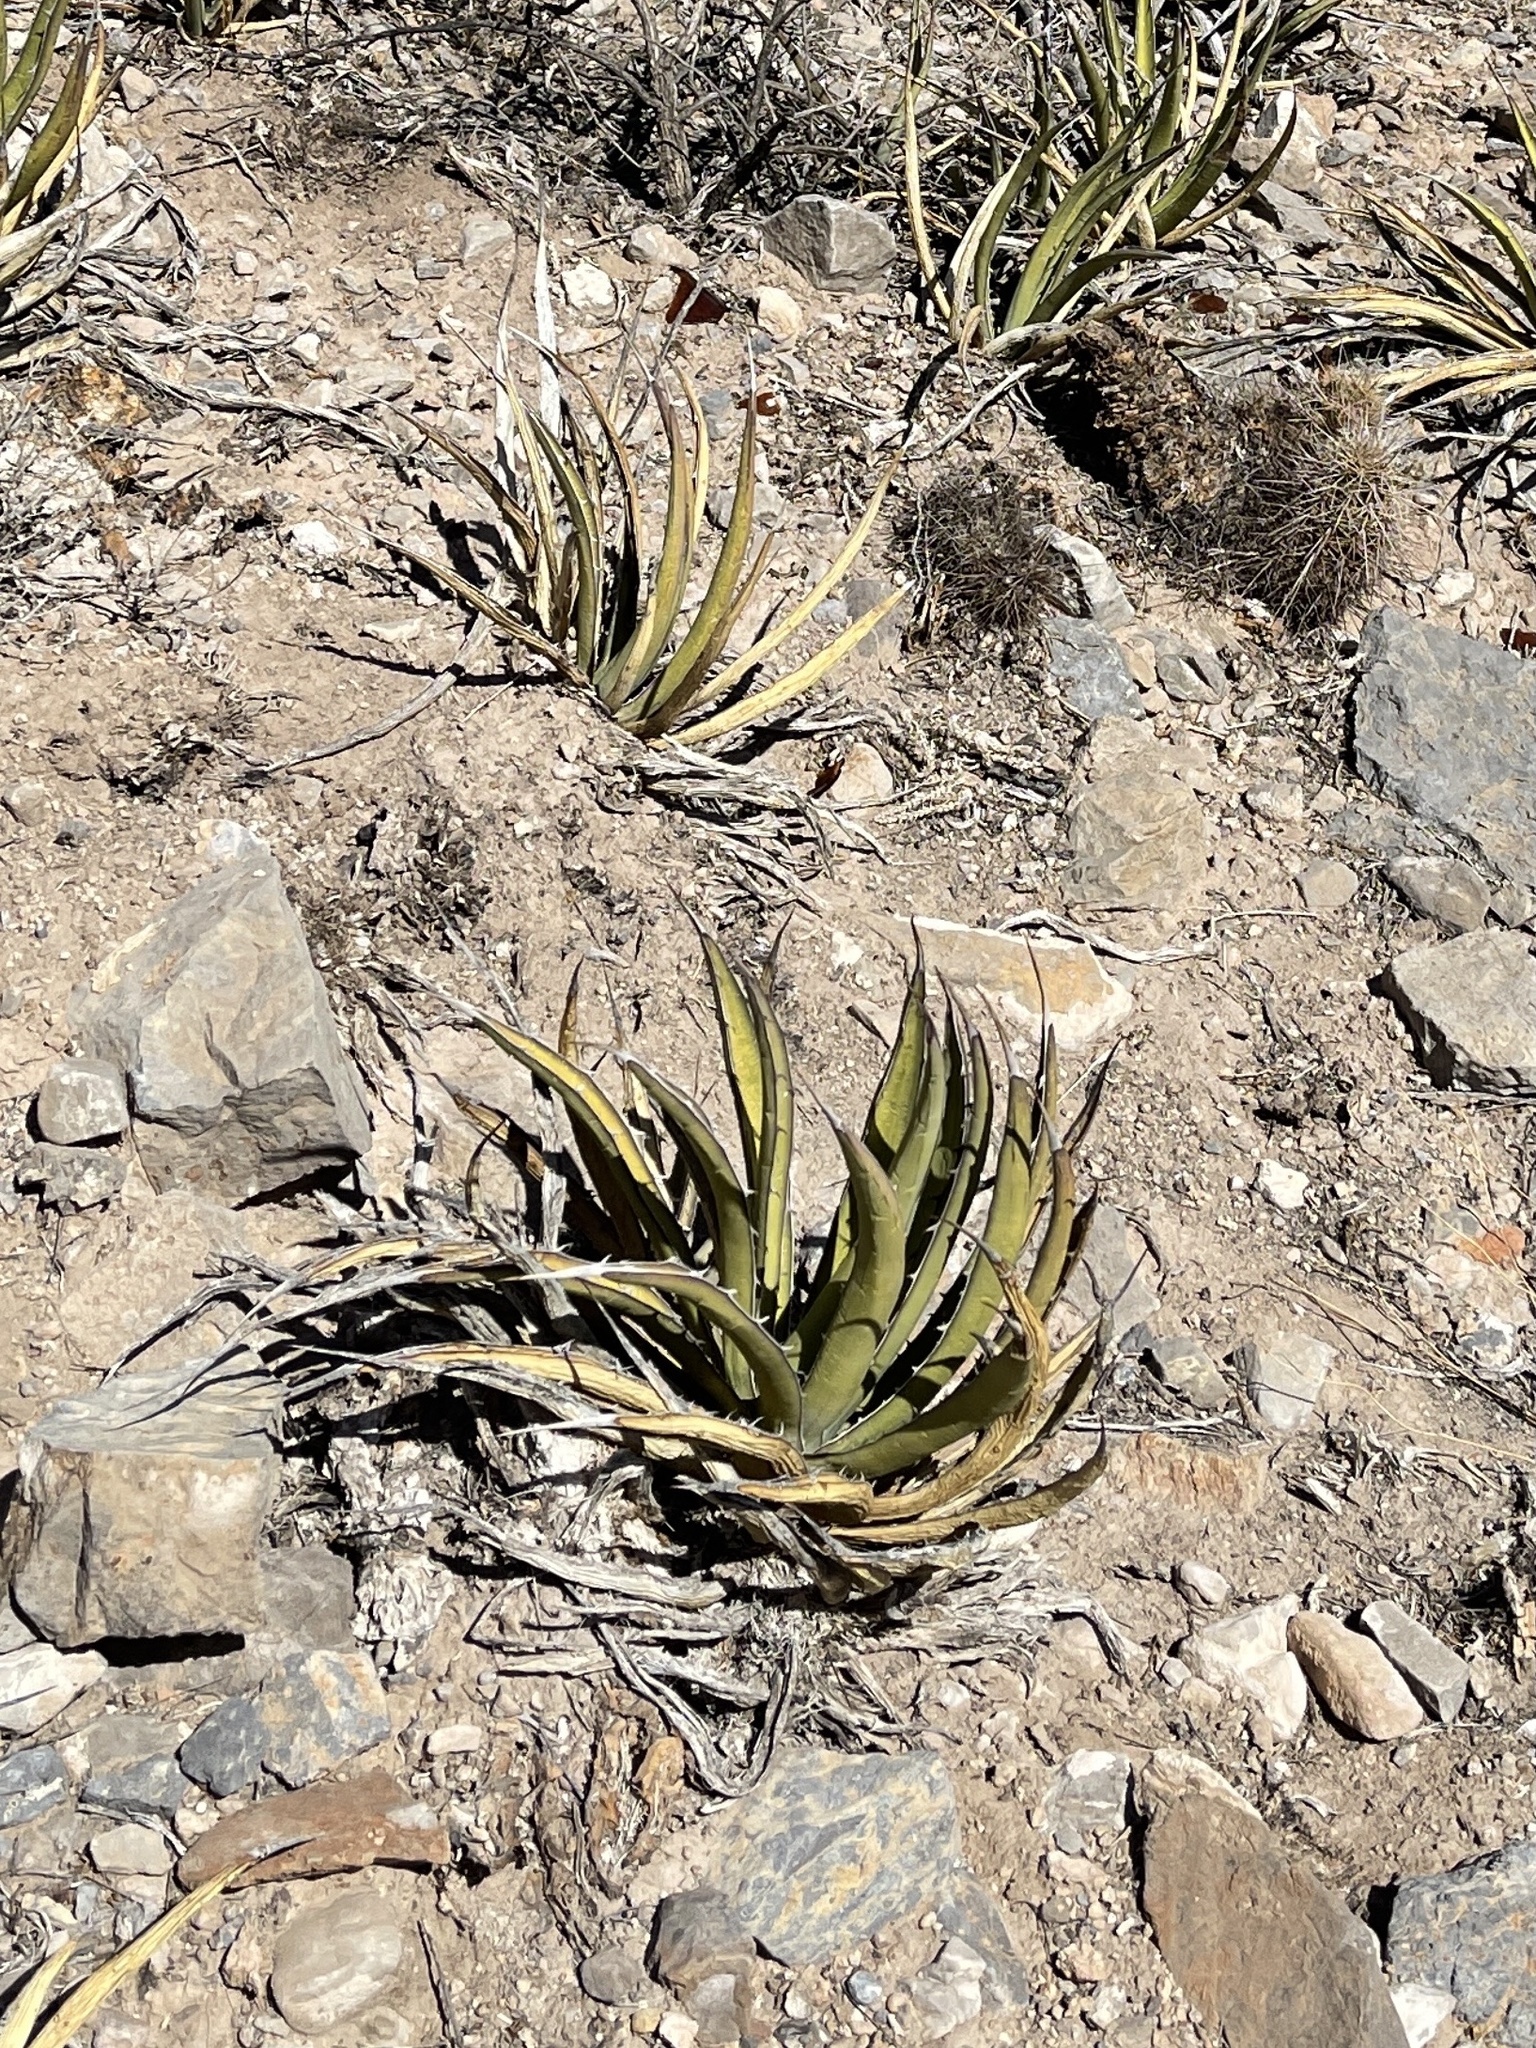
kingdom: Plantae
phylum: Tracheophyta
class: Liliopsida
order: Asparagales
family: Asparagaceae
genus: Agave
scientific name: Agave lechuguilla
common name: Lecheguilla agave
